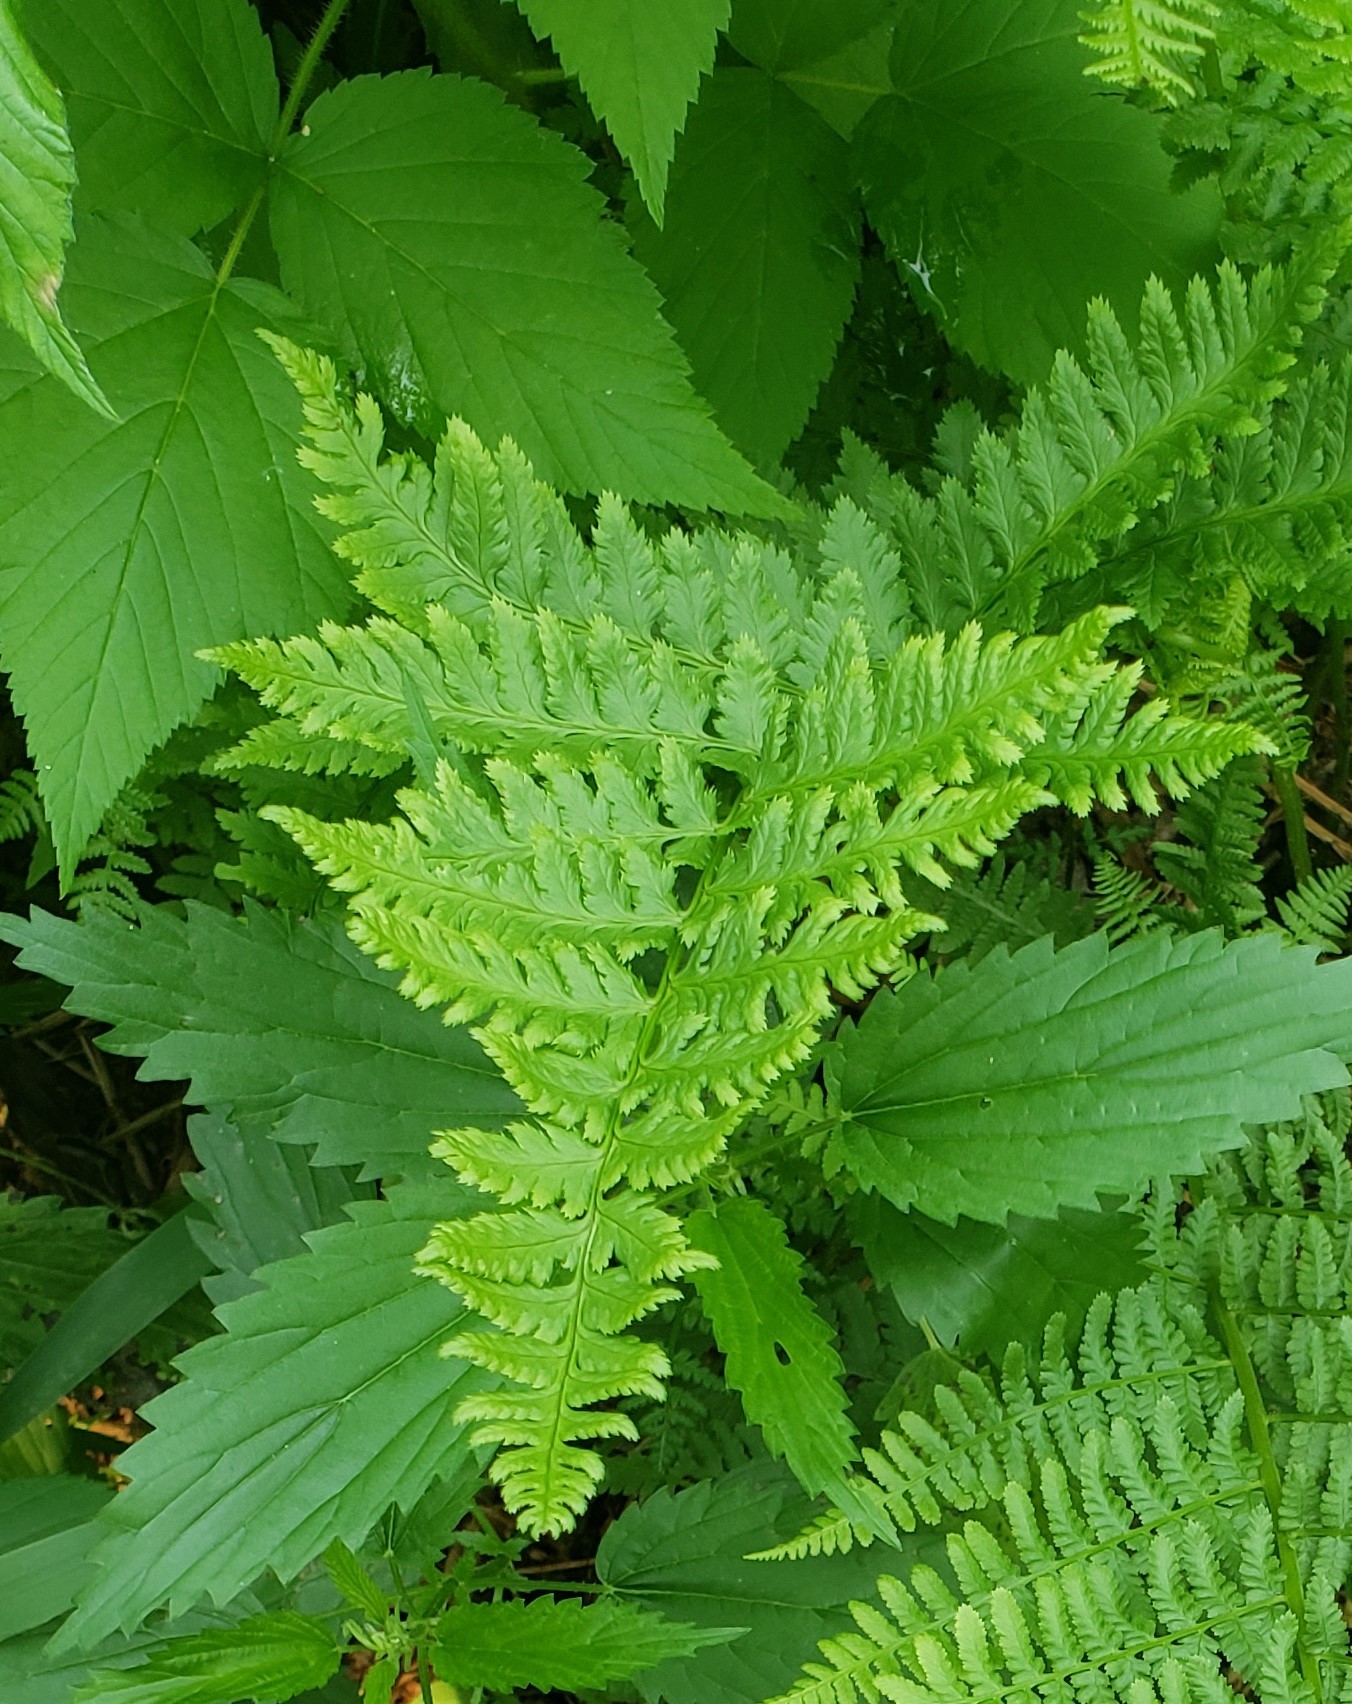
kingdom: Plantae
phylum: Tracheophyta
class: Polypodiopsida
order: Polypodiales
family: Dryopteridaceae
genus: Dryopteris
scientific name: Dryopteris carthusiana
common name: Narrow buckler-fern
